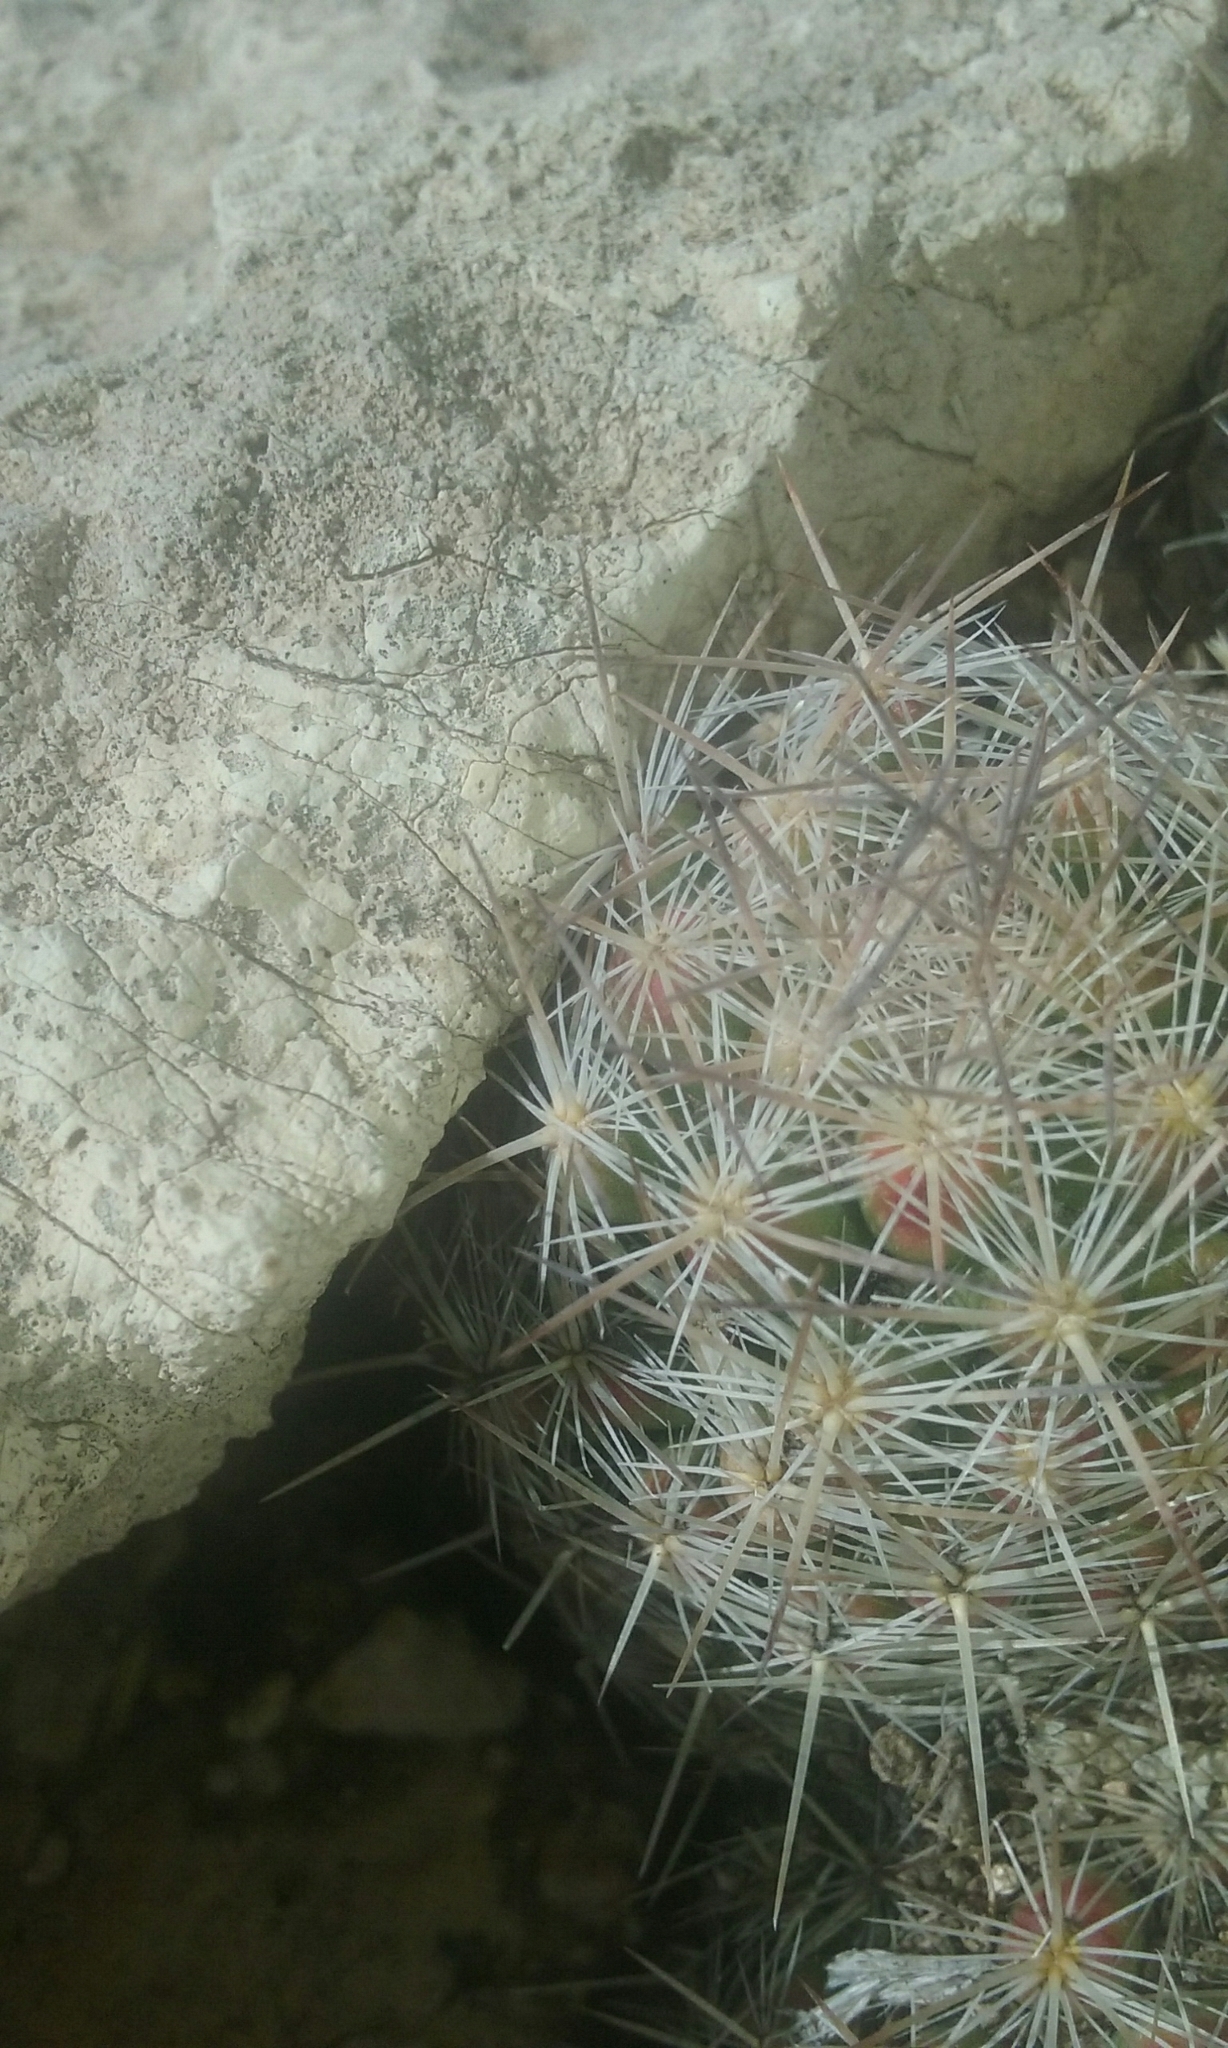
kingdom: Plantae
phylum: Tracheophyta
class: Magnoliopsida
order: Caryophyllales
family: Cactaceae
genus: Pelecyphora
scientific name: Pelecyphora tuberculosa
